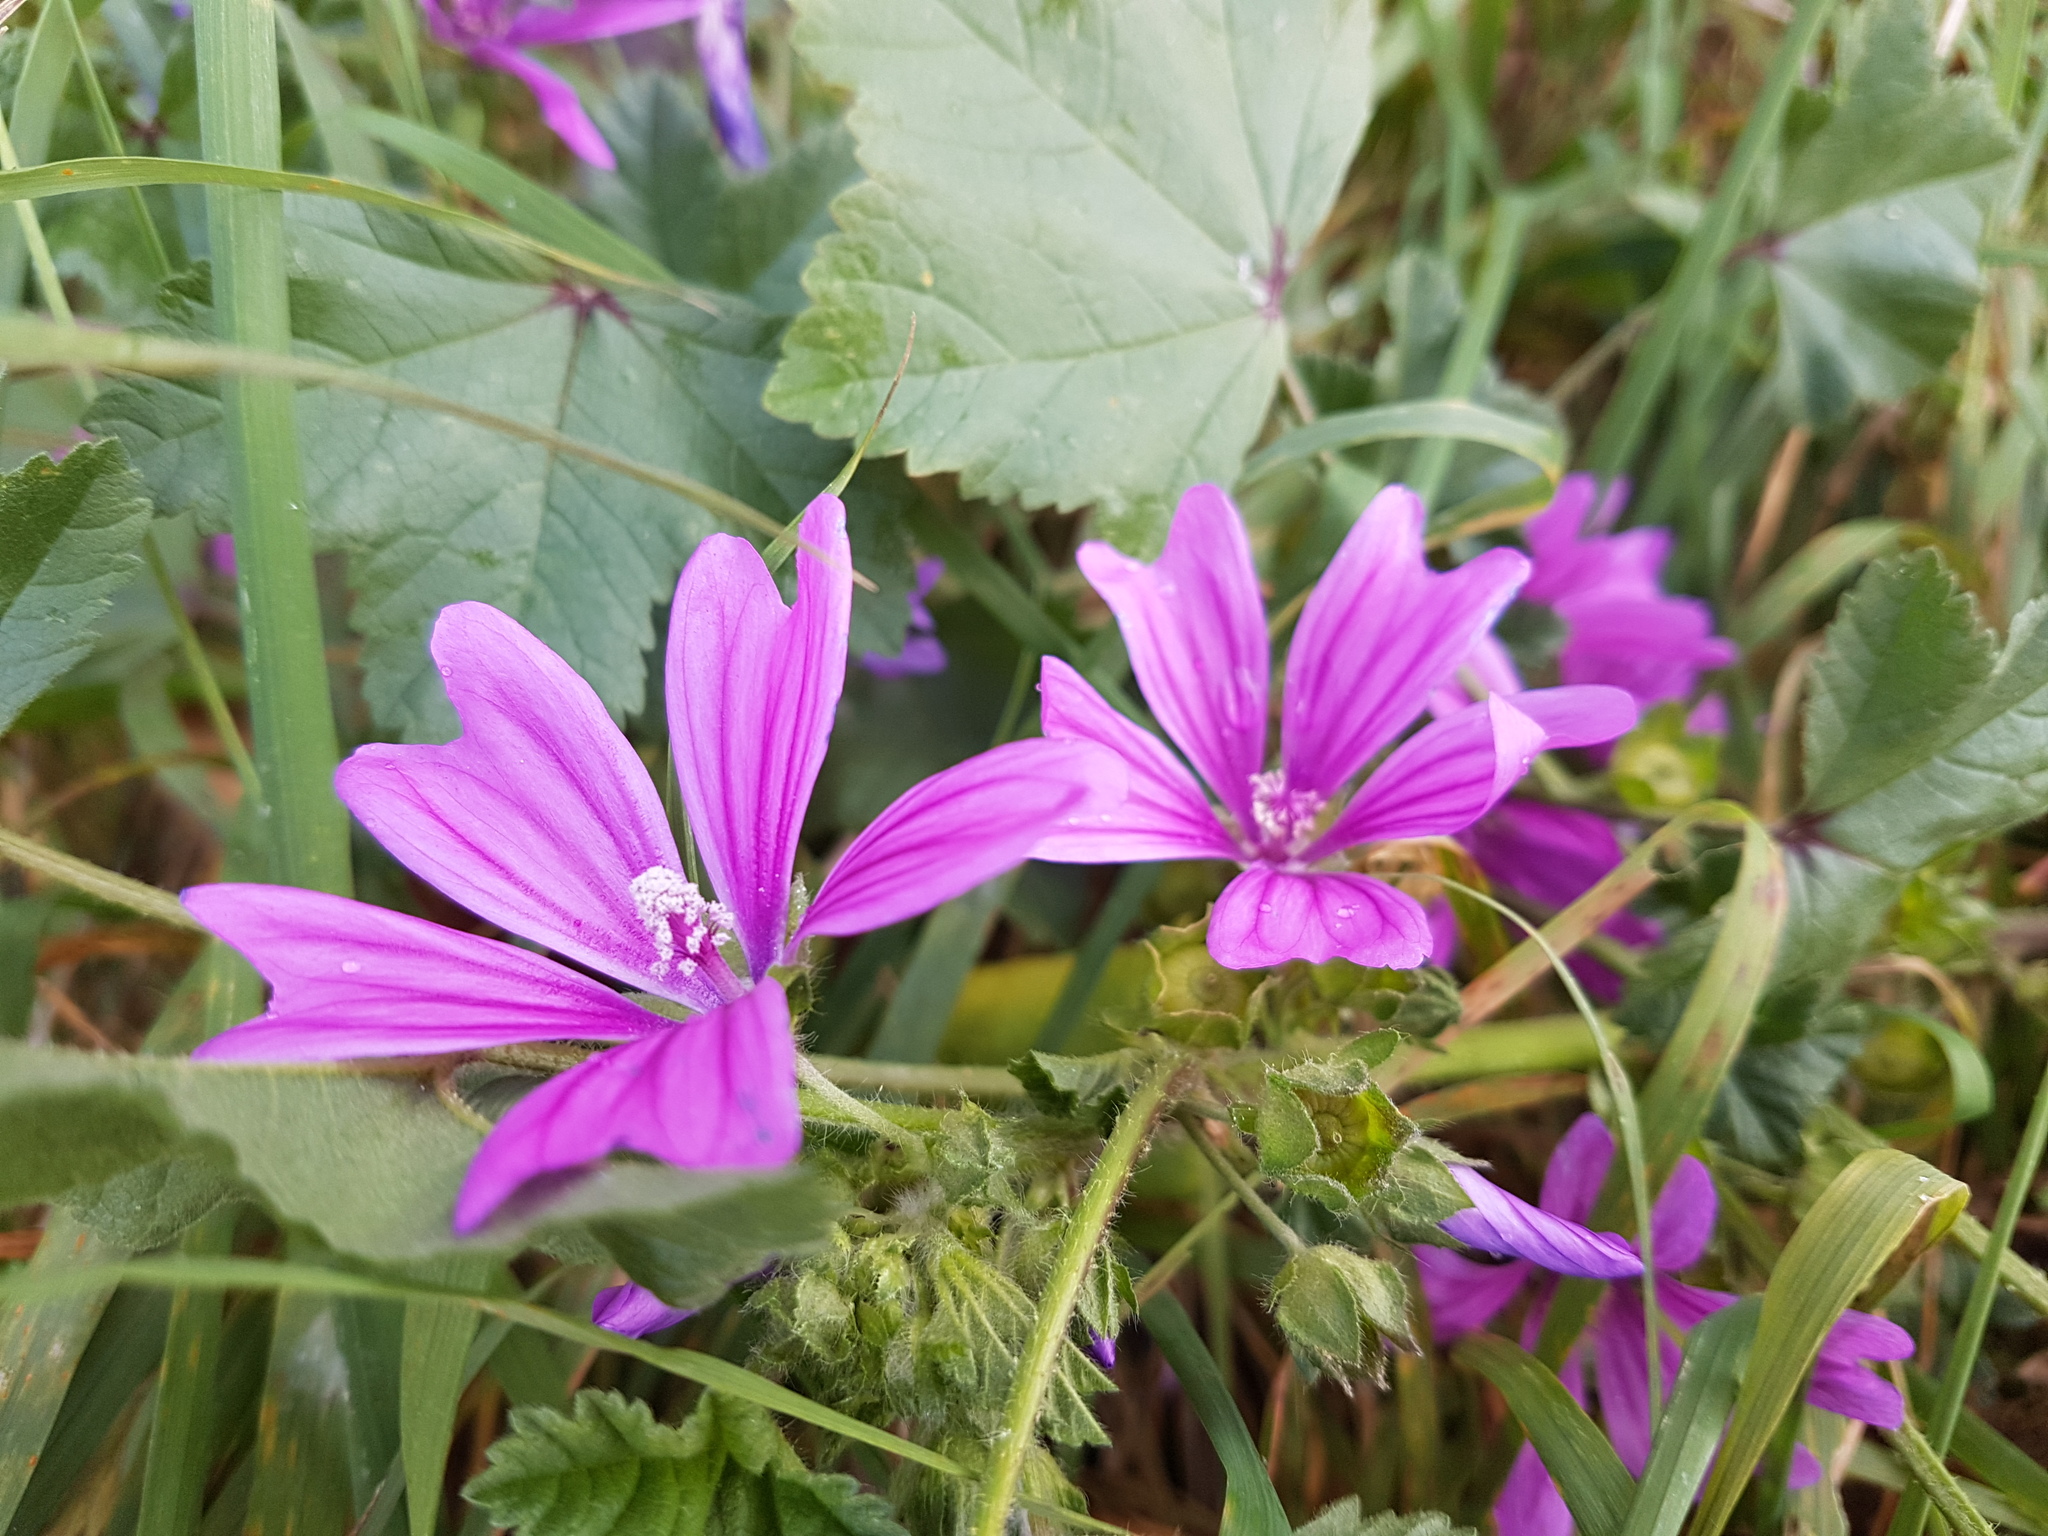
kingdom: Plantae
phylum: Tracheophyta
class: Magnoliopsida
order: Malvales
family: Malvaceae
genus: Malva
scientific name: Malva sylvestris
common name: Common mallow
